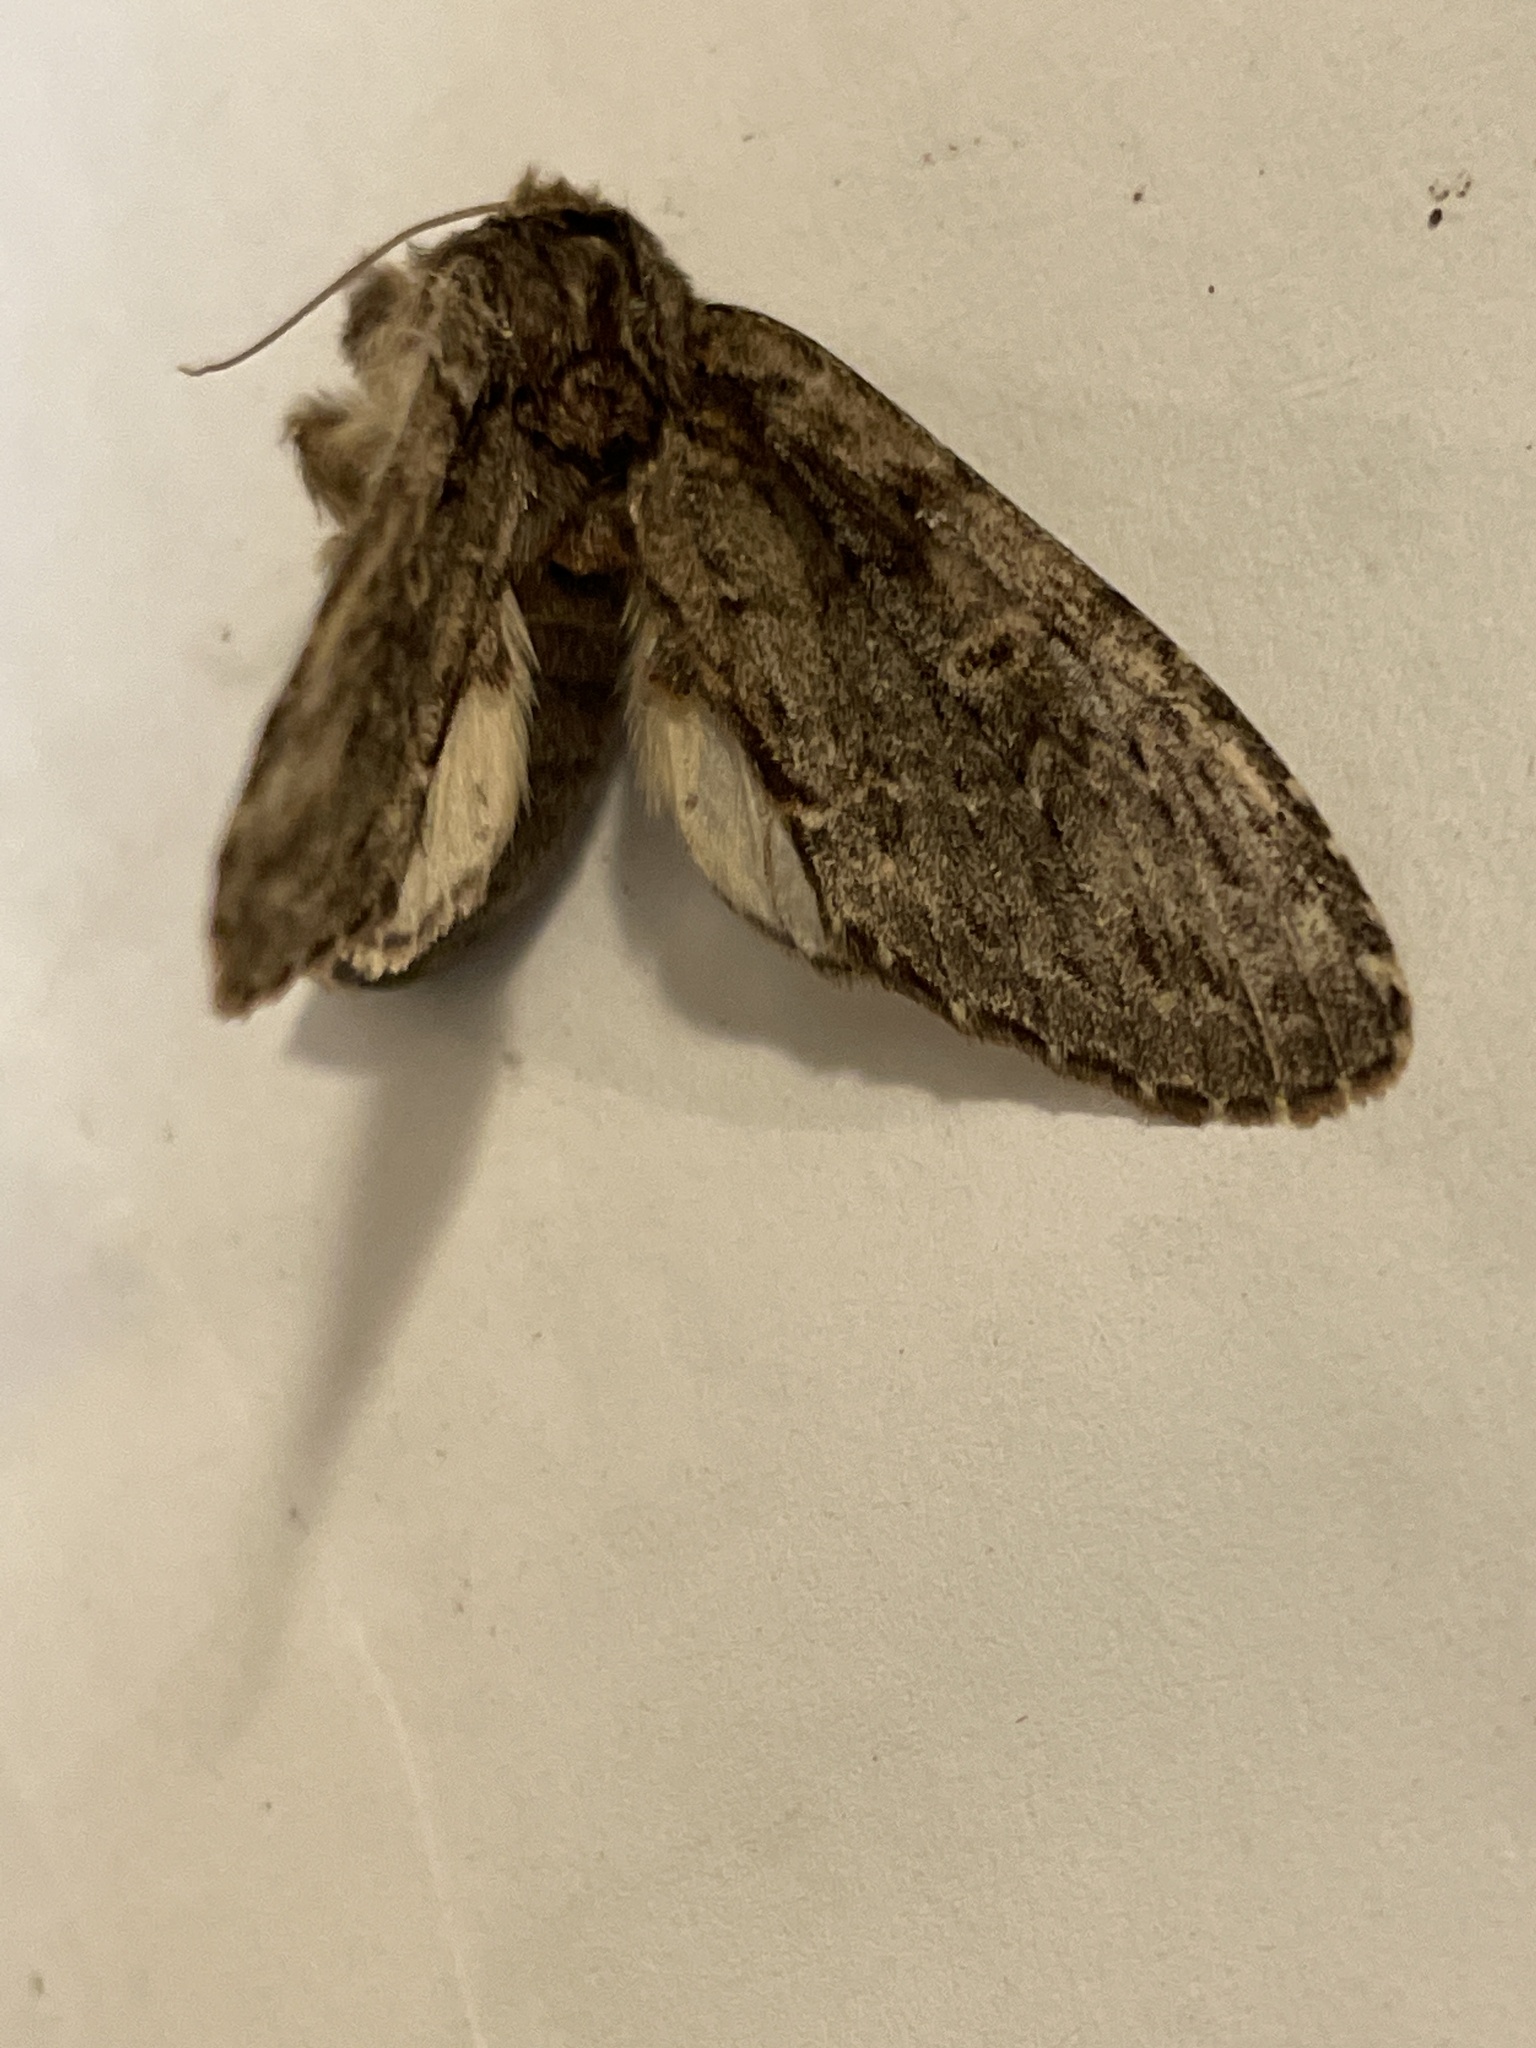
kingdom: Animalia
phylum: Arthropoda
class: Insecta
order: Lepidoptera
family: Notodontidae
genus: Peridea
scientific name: Peridea anceps
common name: Great prominent
